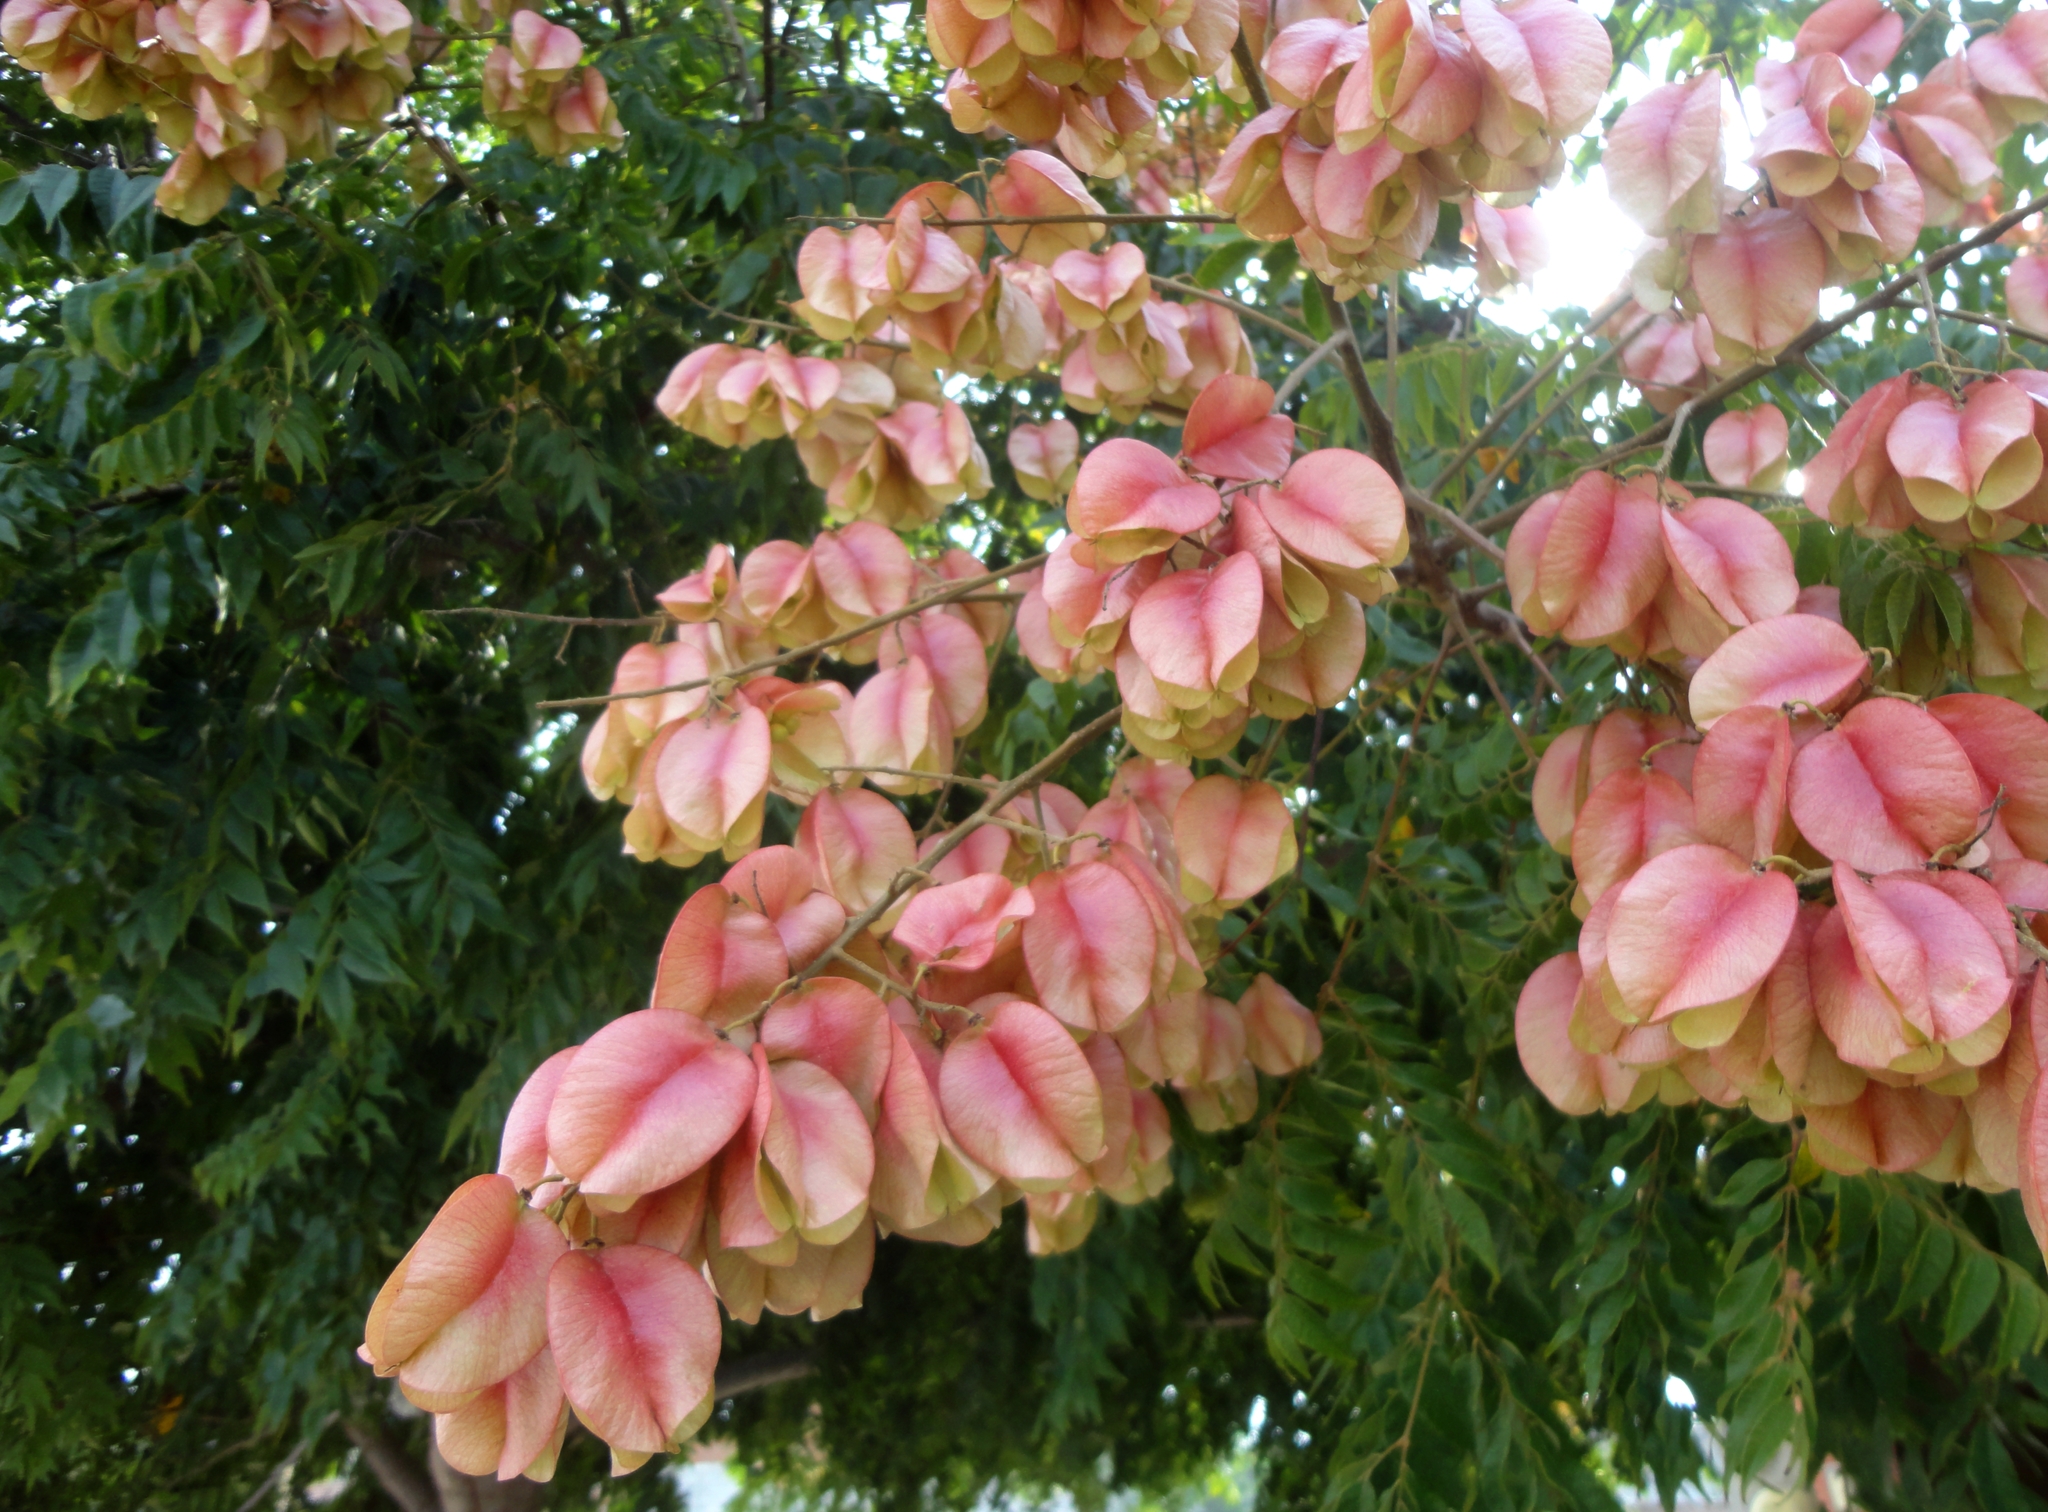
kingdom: Plantae
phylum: Tracheophyta
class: Magnoliopsida
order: Sapindales
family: Sapindaceae
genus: Koelreuteria
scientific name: Koelreuteria elegans
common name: Chinese flame tree
